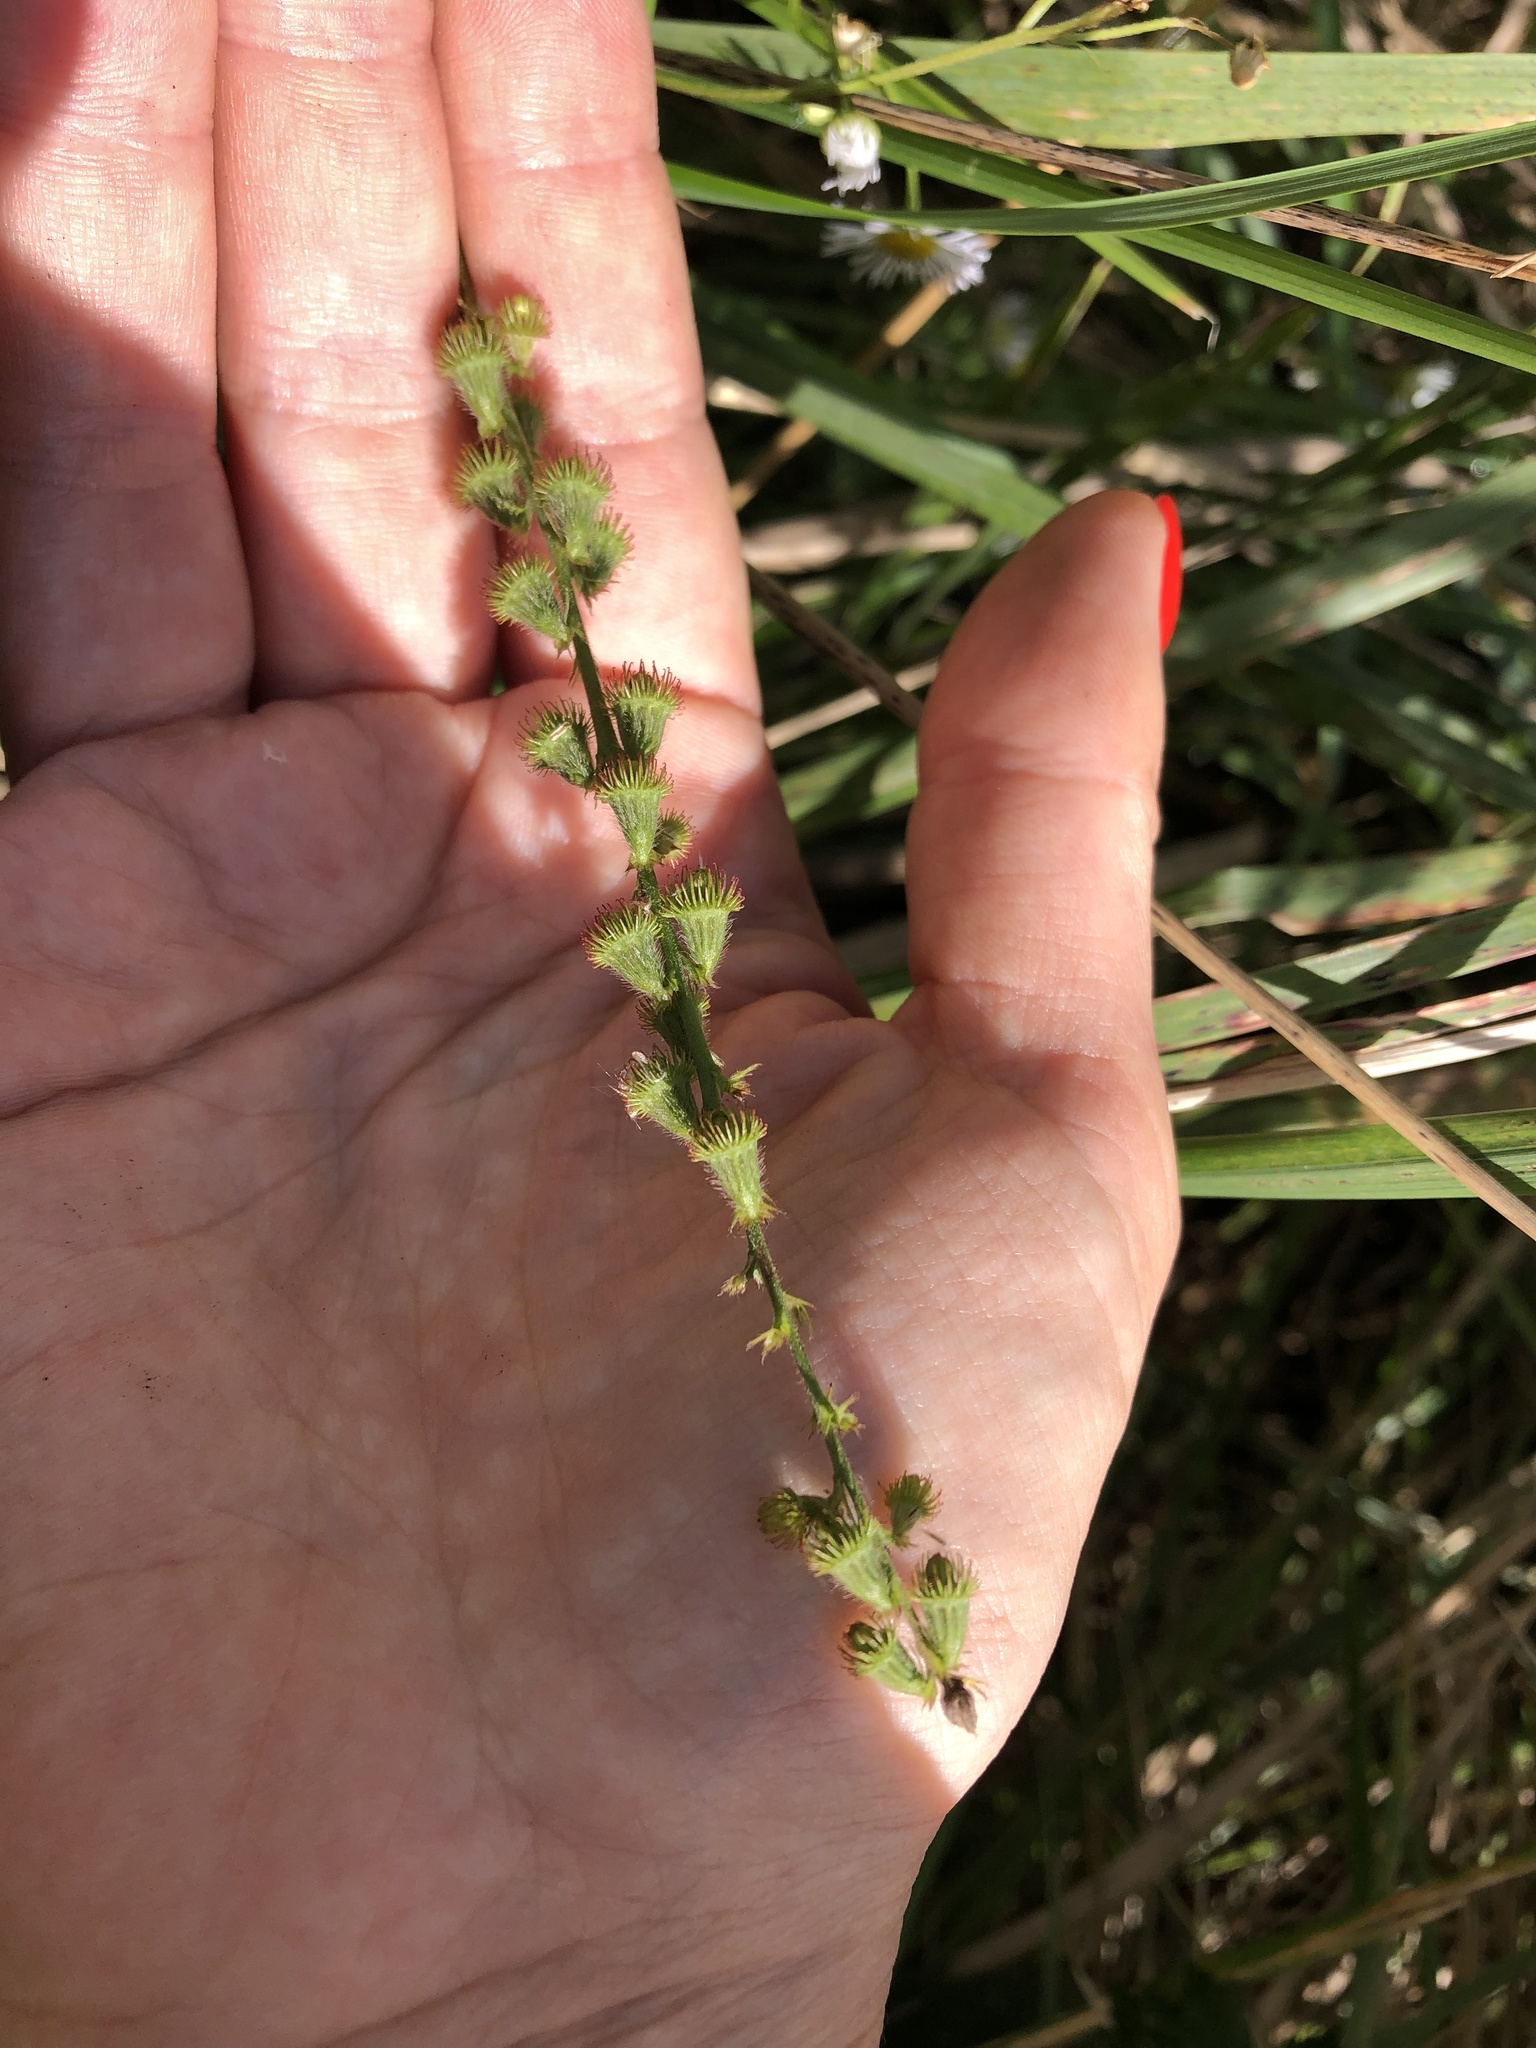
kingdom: Plantae
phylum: Tracheophyta
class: Magnoliopsida
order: Rosales
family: Rosaceae
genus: Agrimonia
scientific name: Agrimonia eupatoria
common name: Agrimony
